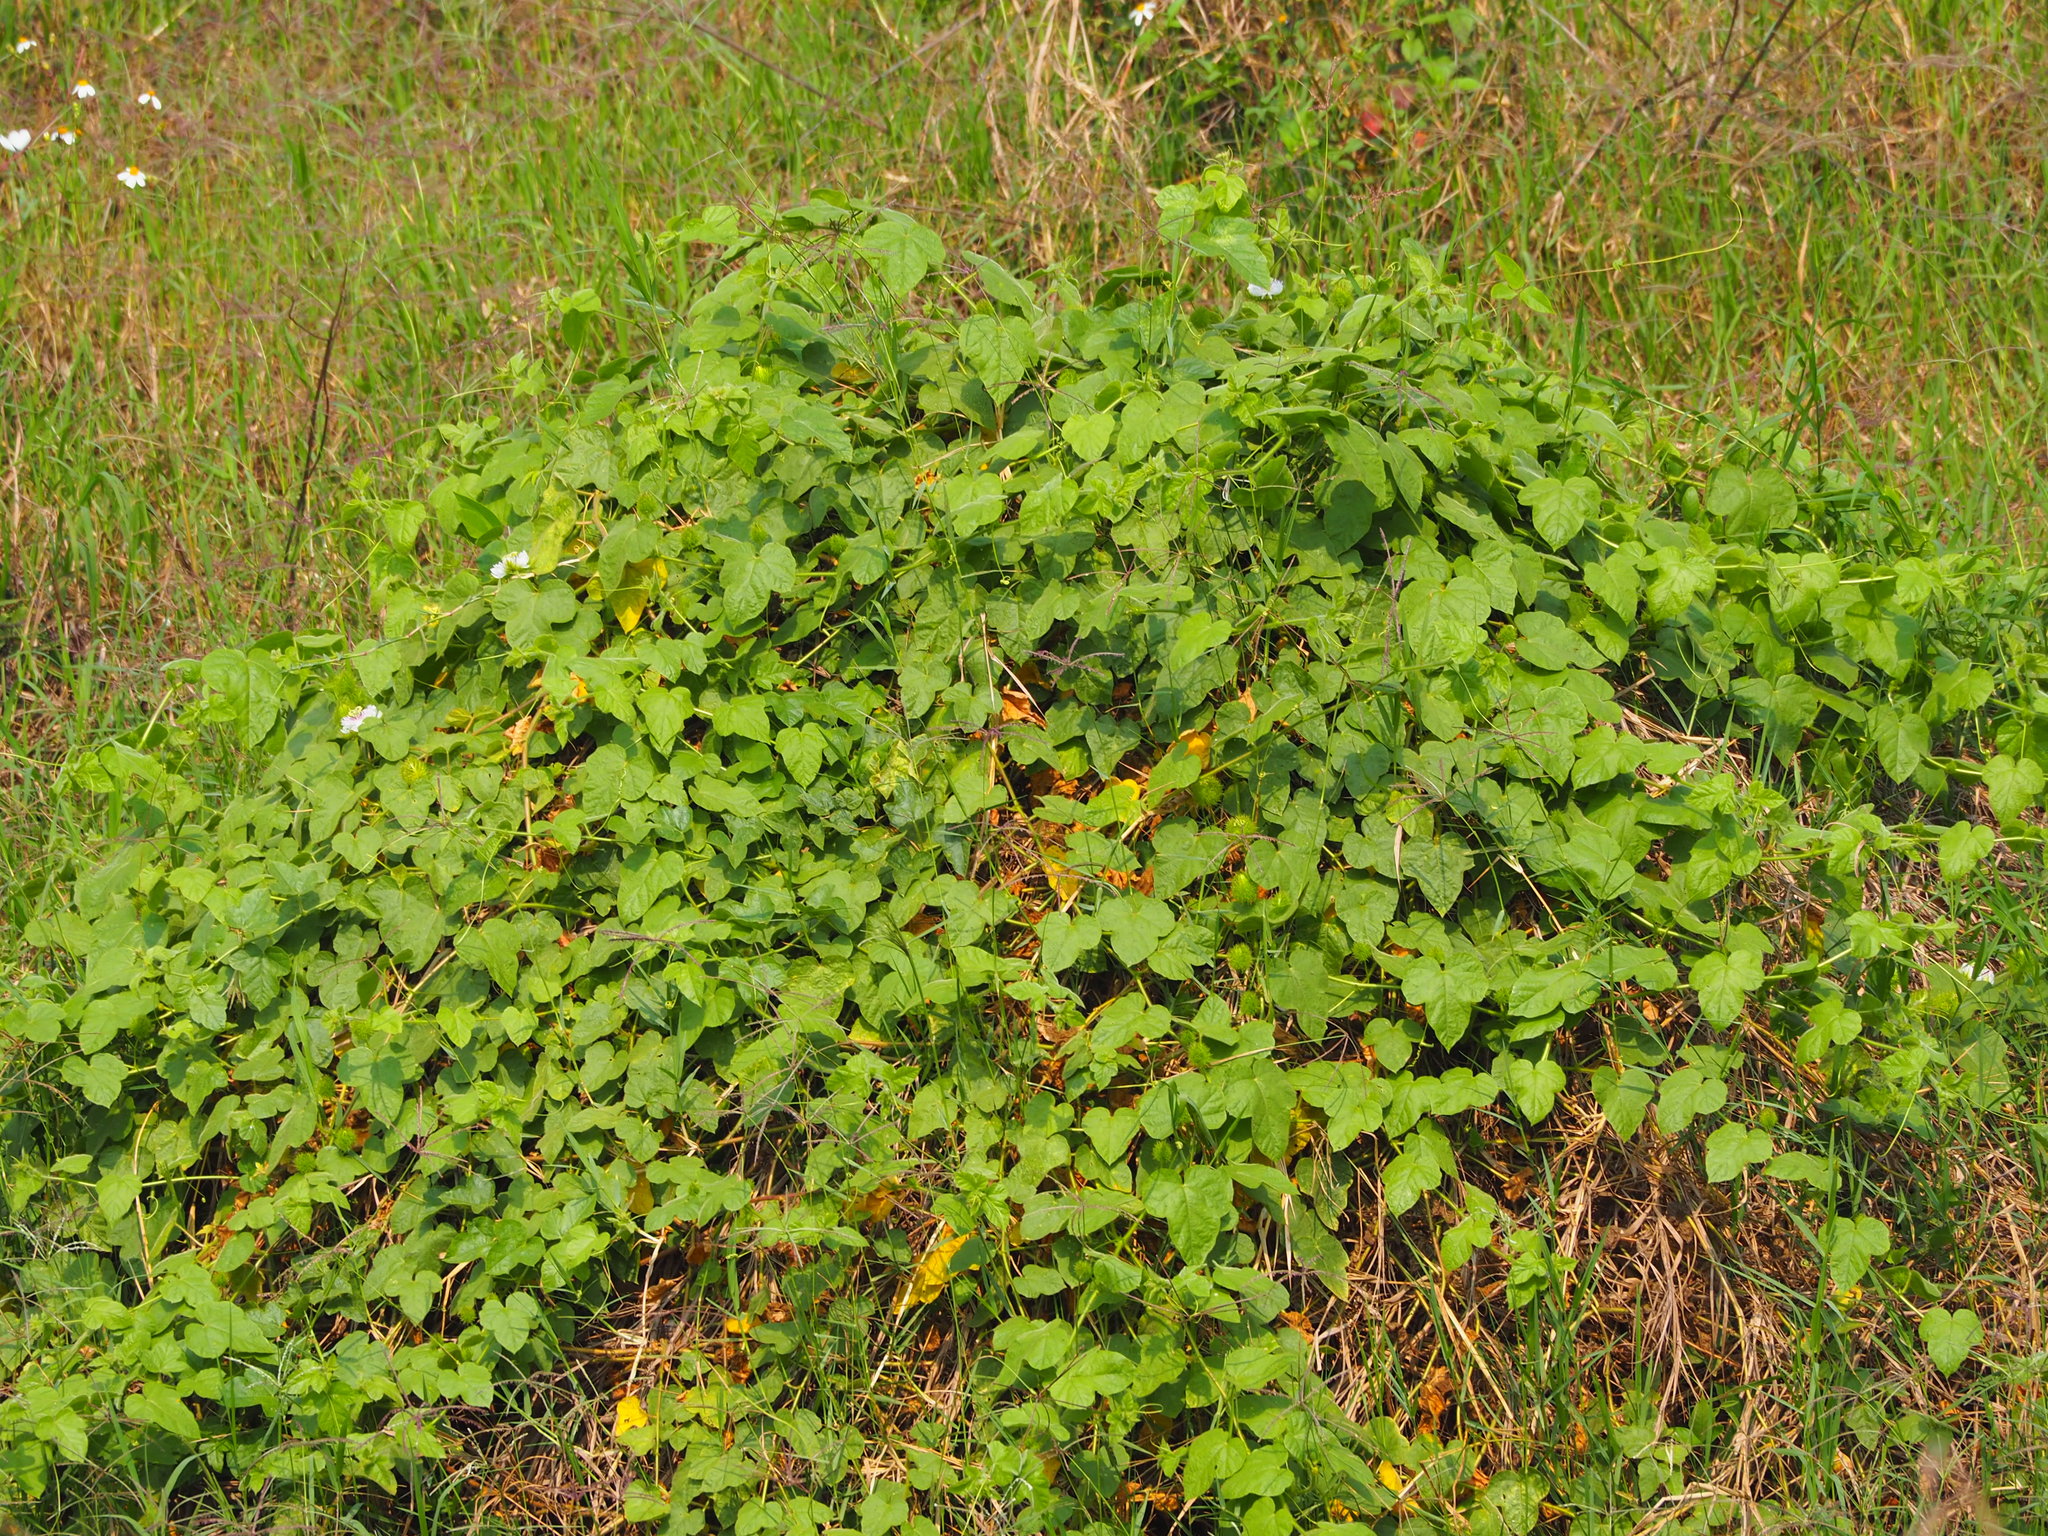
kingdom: Plantae
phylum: Tracheophyta
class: Magnoliopsida
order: Malpighiales
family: Passifloraceae
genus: Passiflora
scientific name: Passiflora vesicaria
